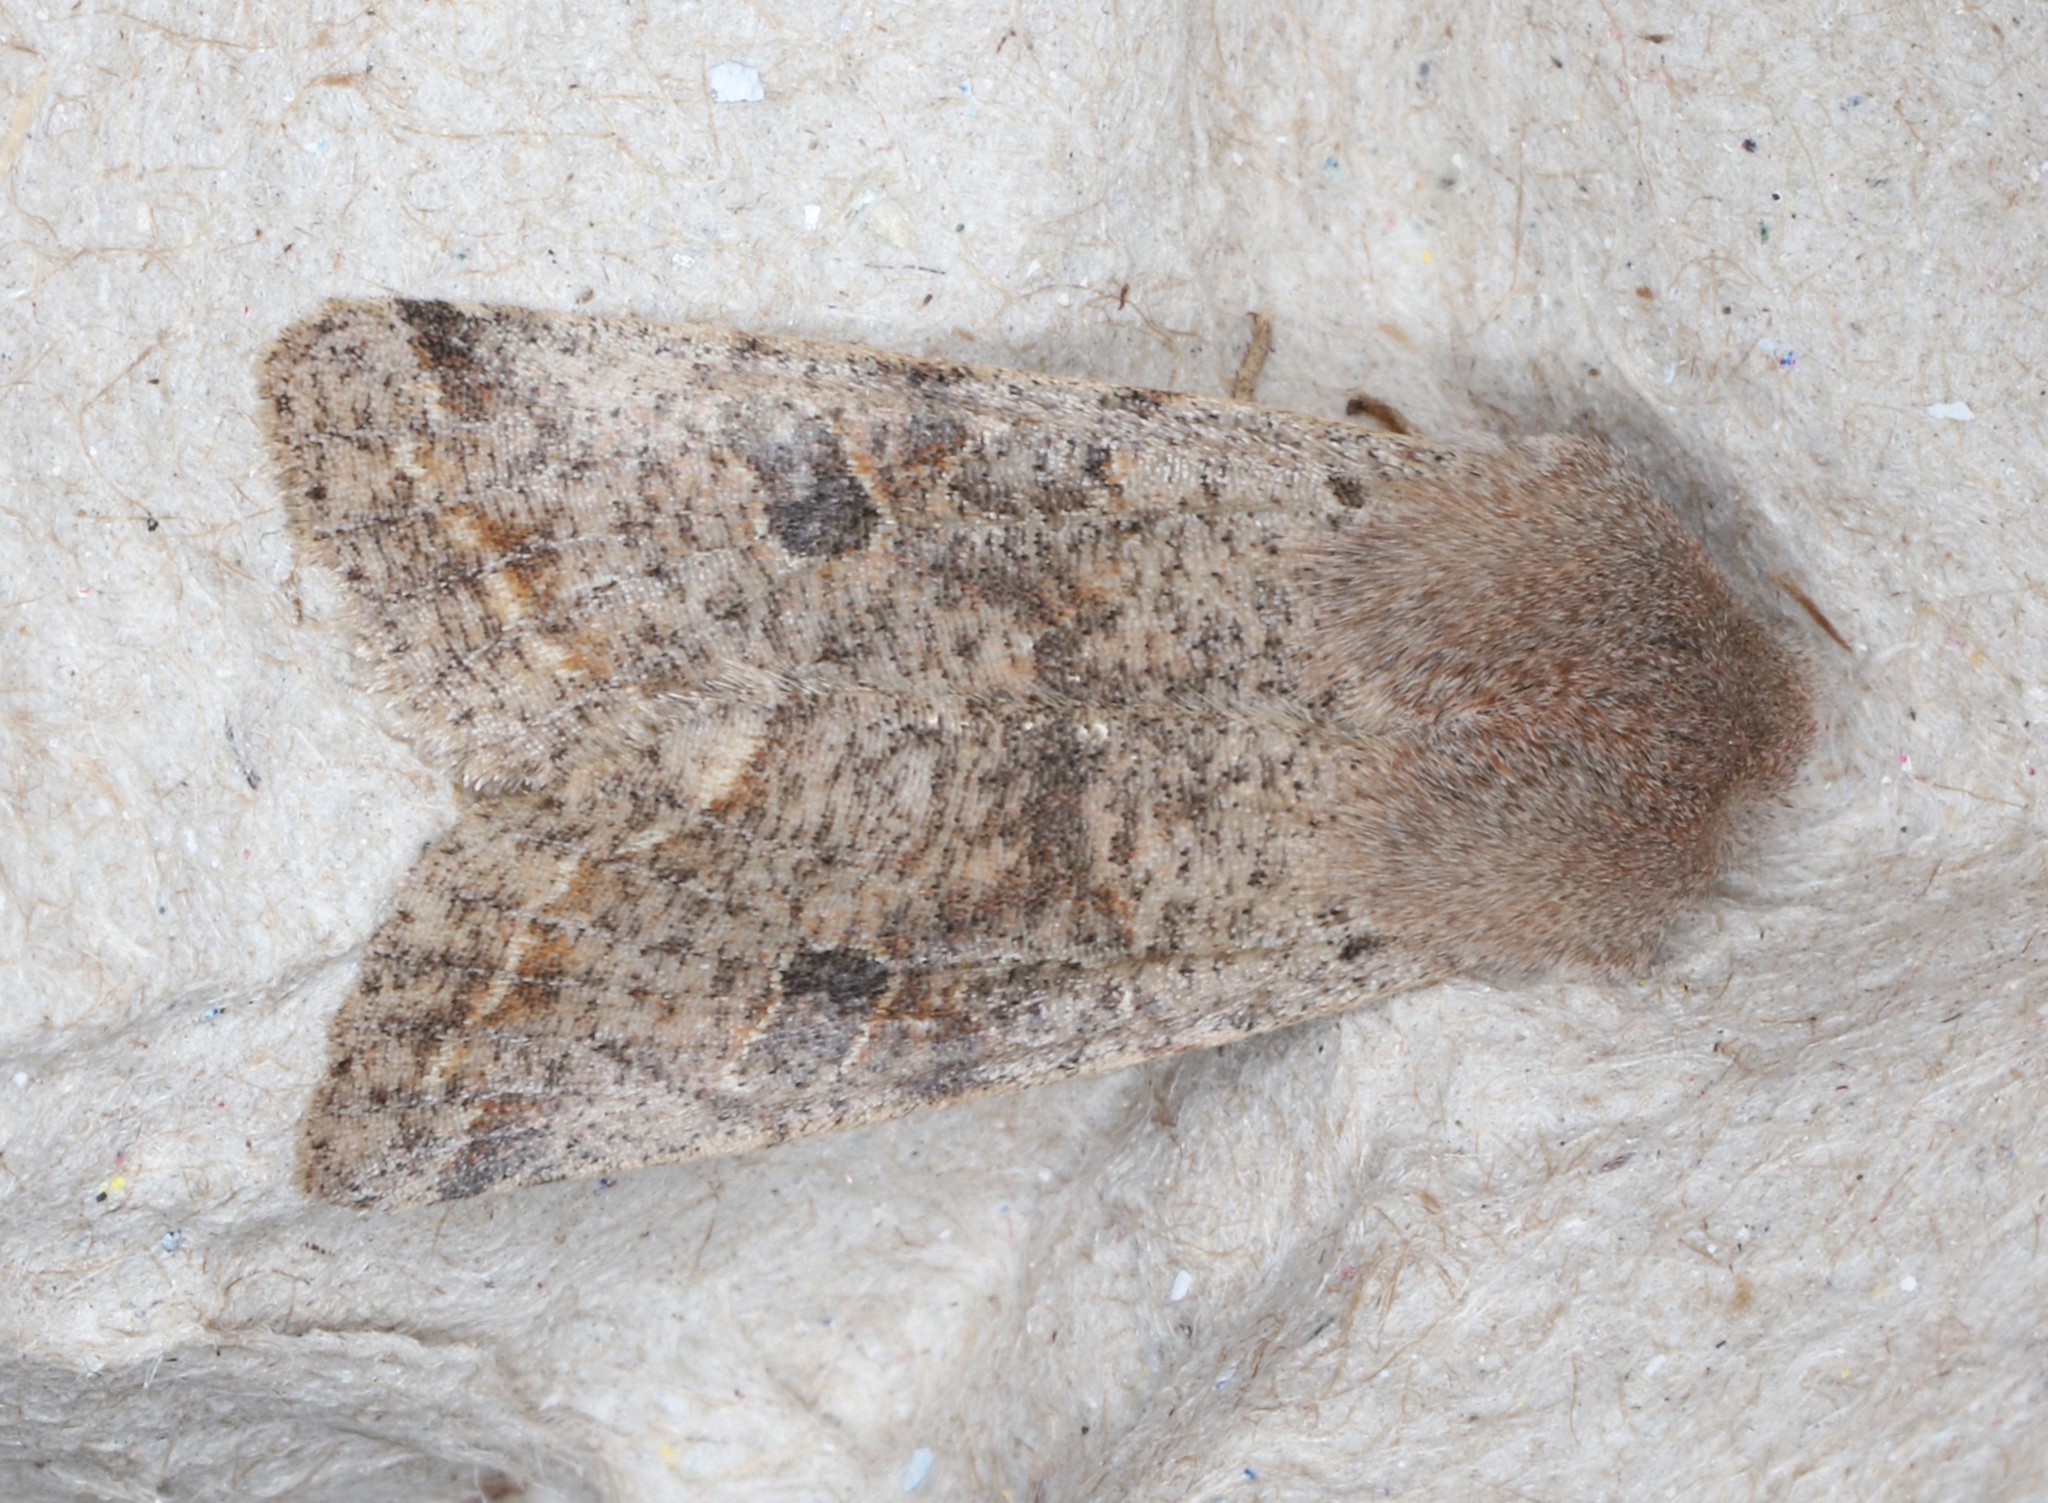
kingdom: Animalia
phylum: Arthropoda
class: Insecta
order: Lepidoptera
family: Noctuidae
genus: Orthosia
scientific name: Orthosia hibisci
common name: Green fruitworm
